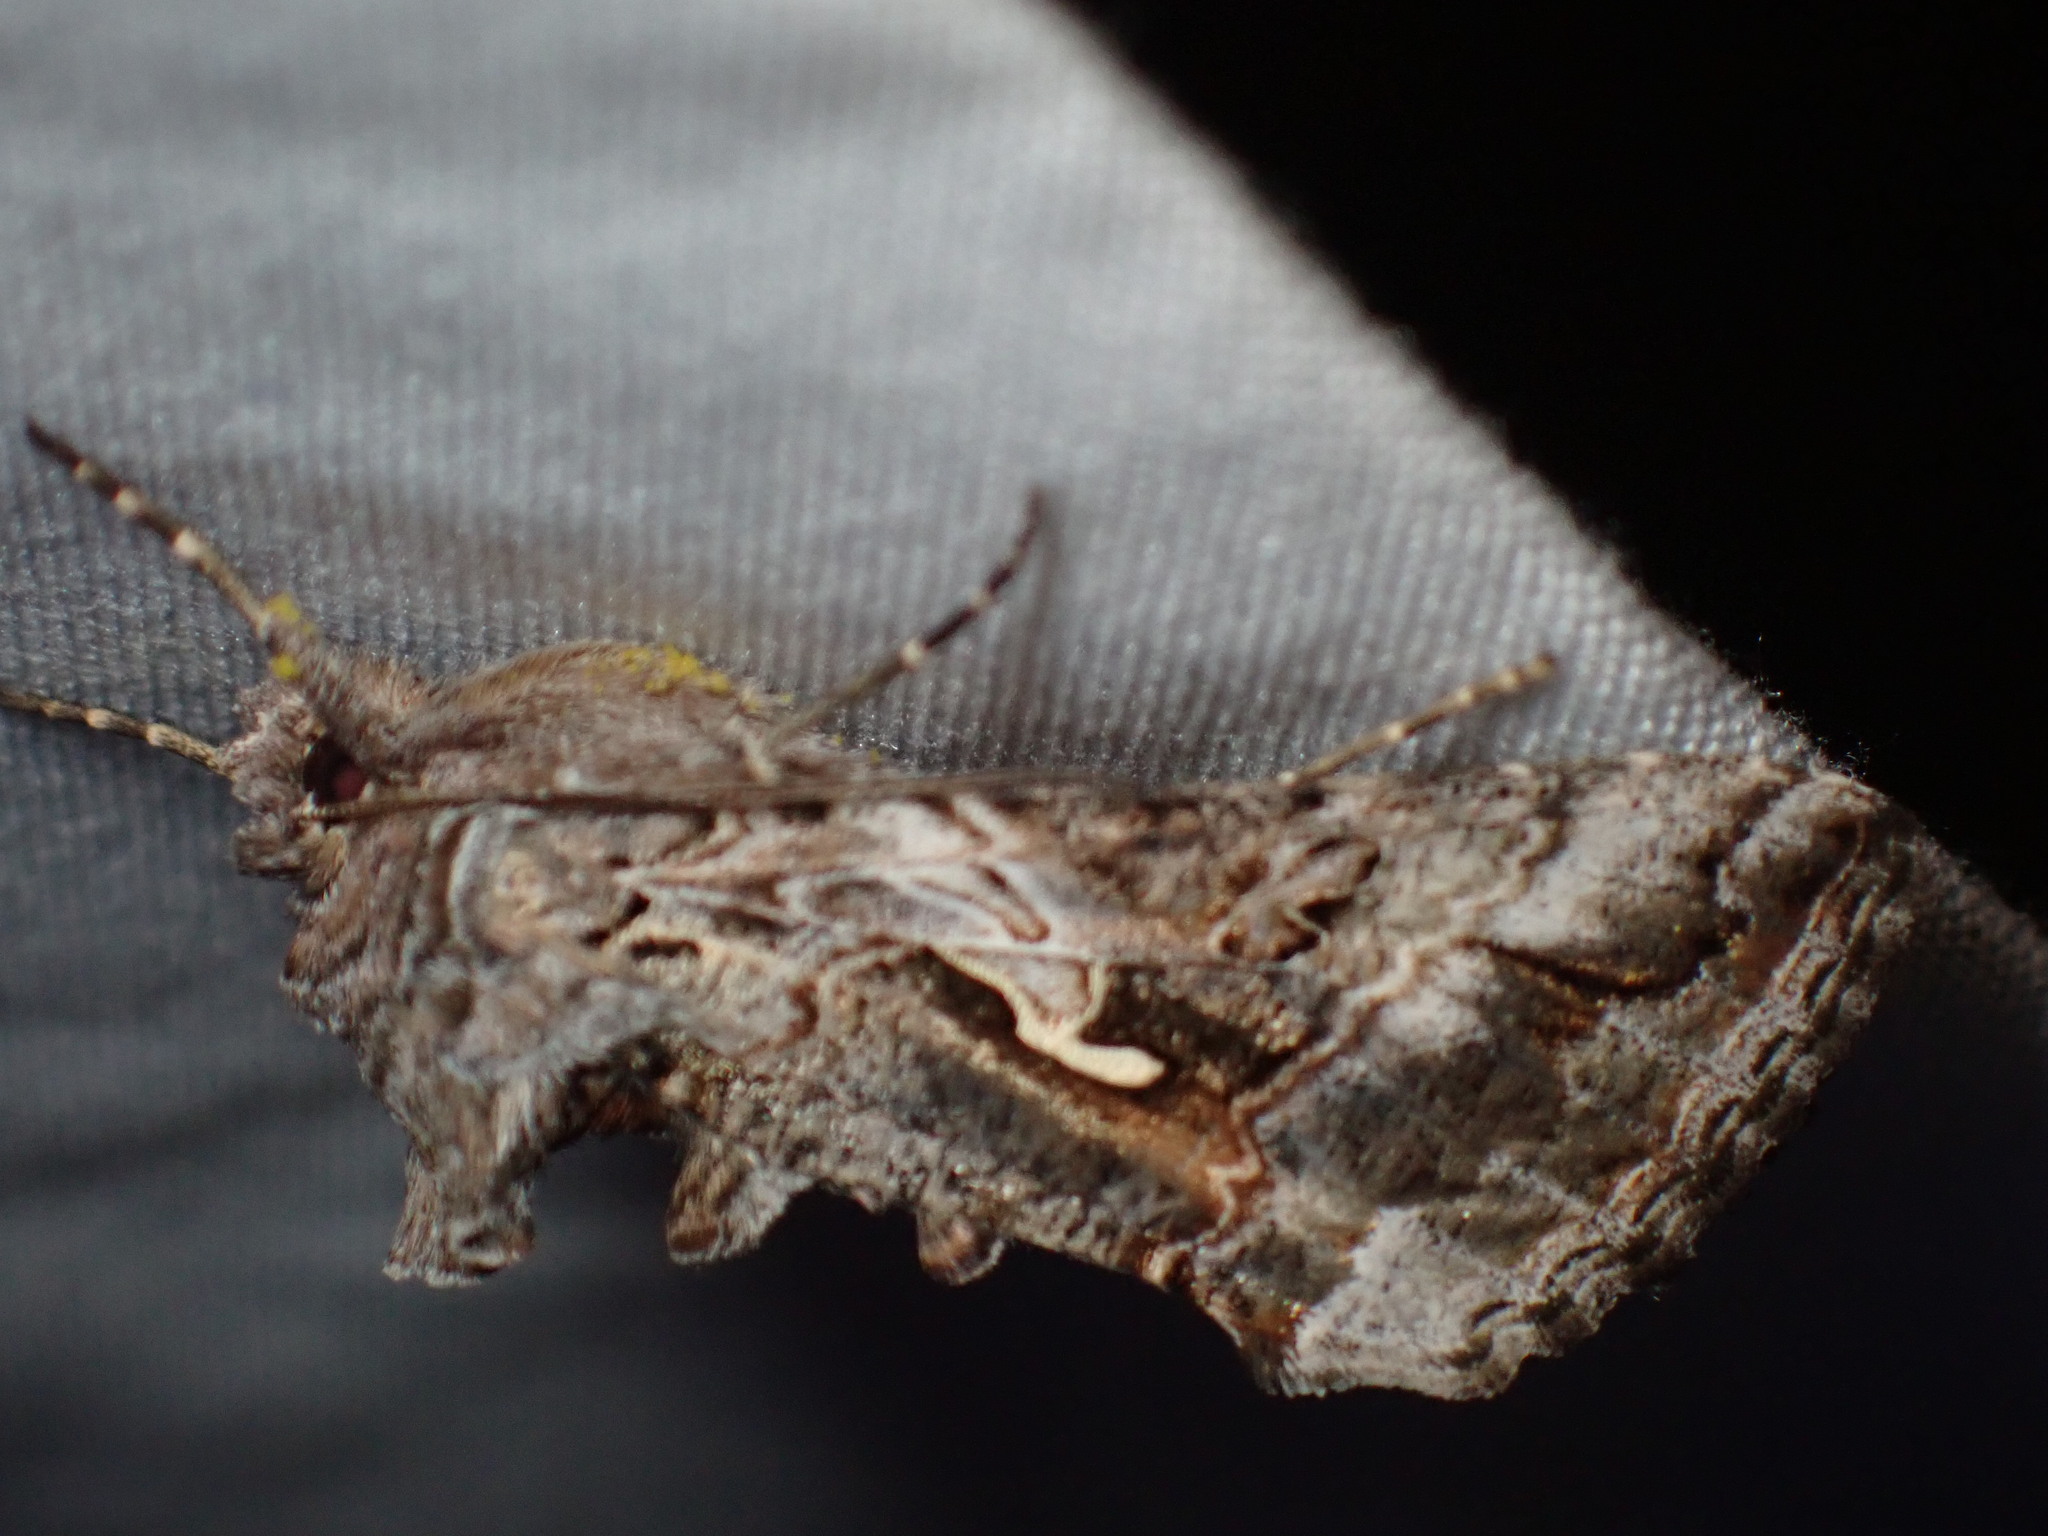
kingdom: Animalia
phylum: Arthropoda
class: Insecta
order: Lepidoptera
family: Noctuidae
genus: Autographa
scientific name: Autographa californica
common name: Alfalfa looper
